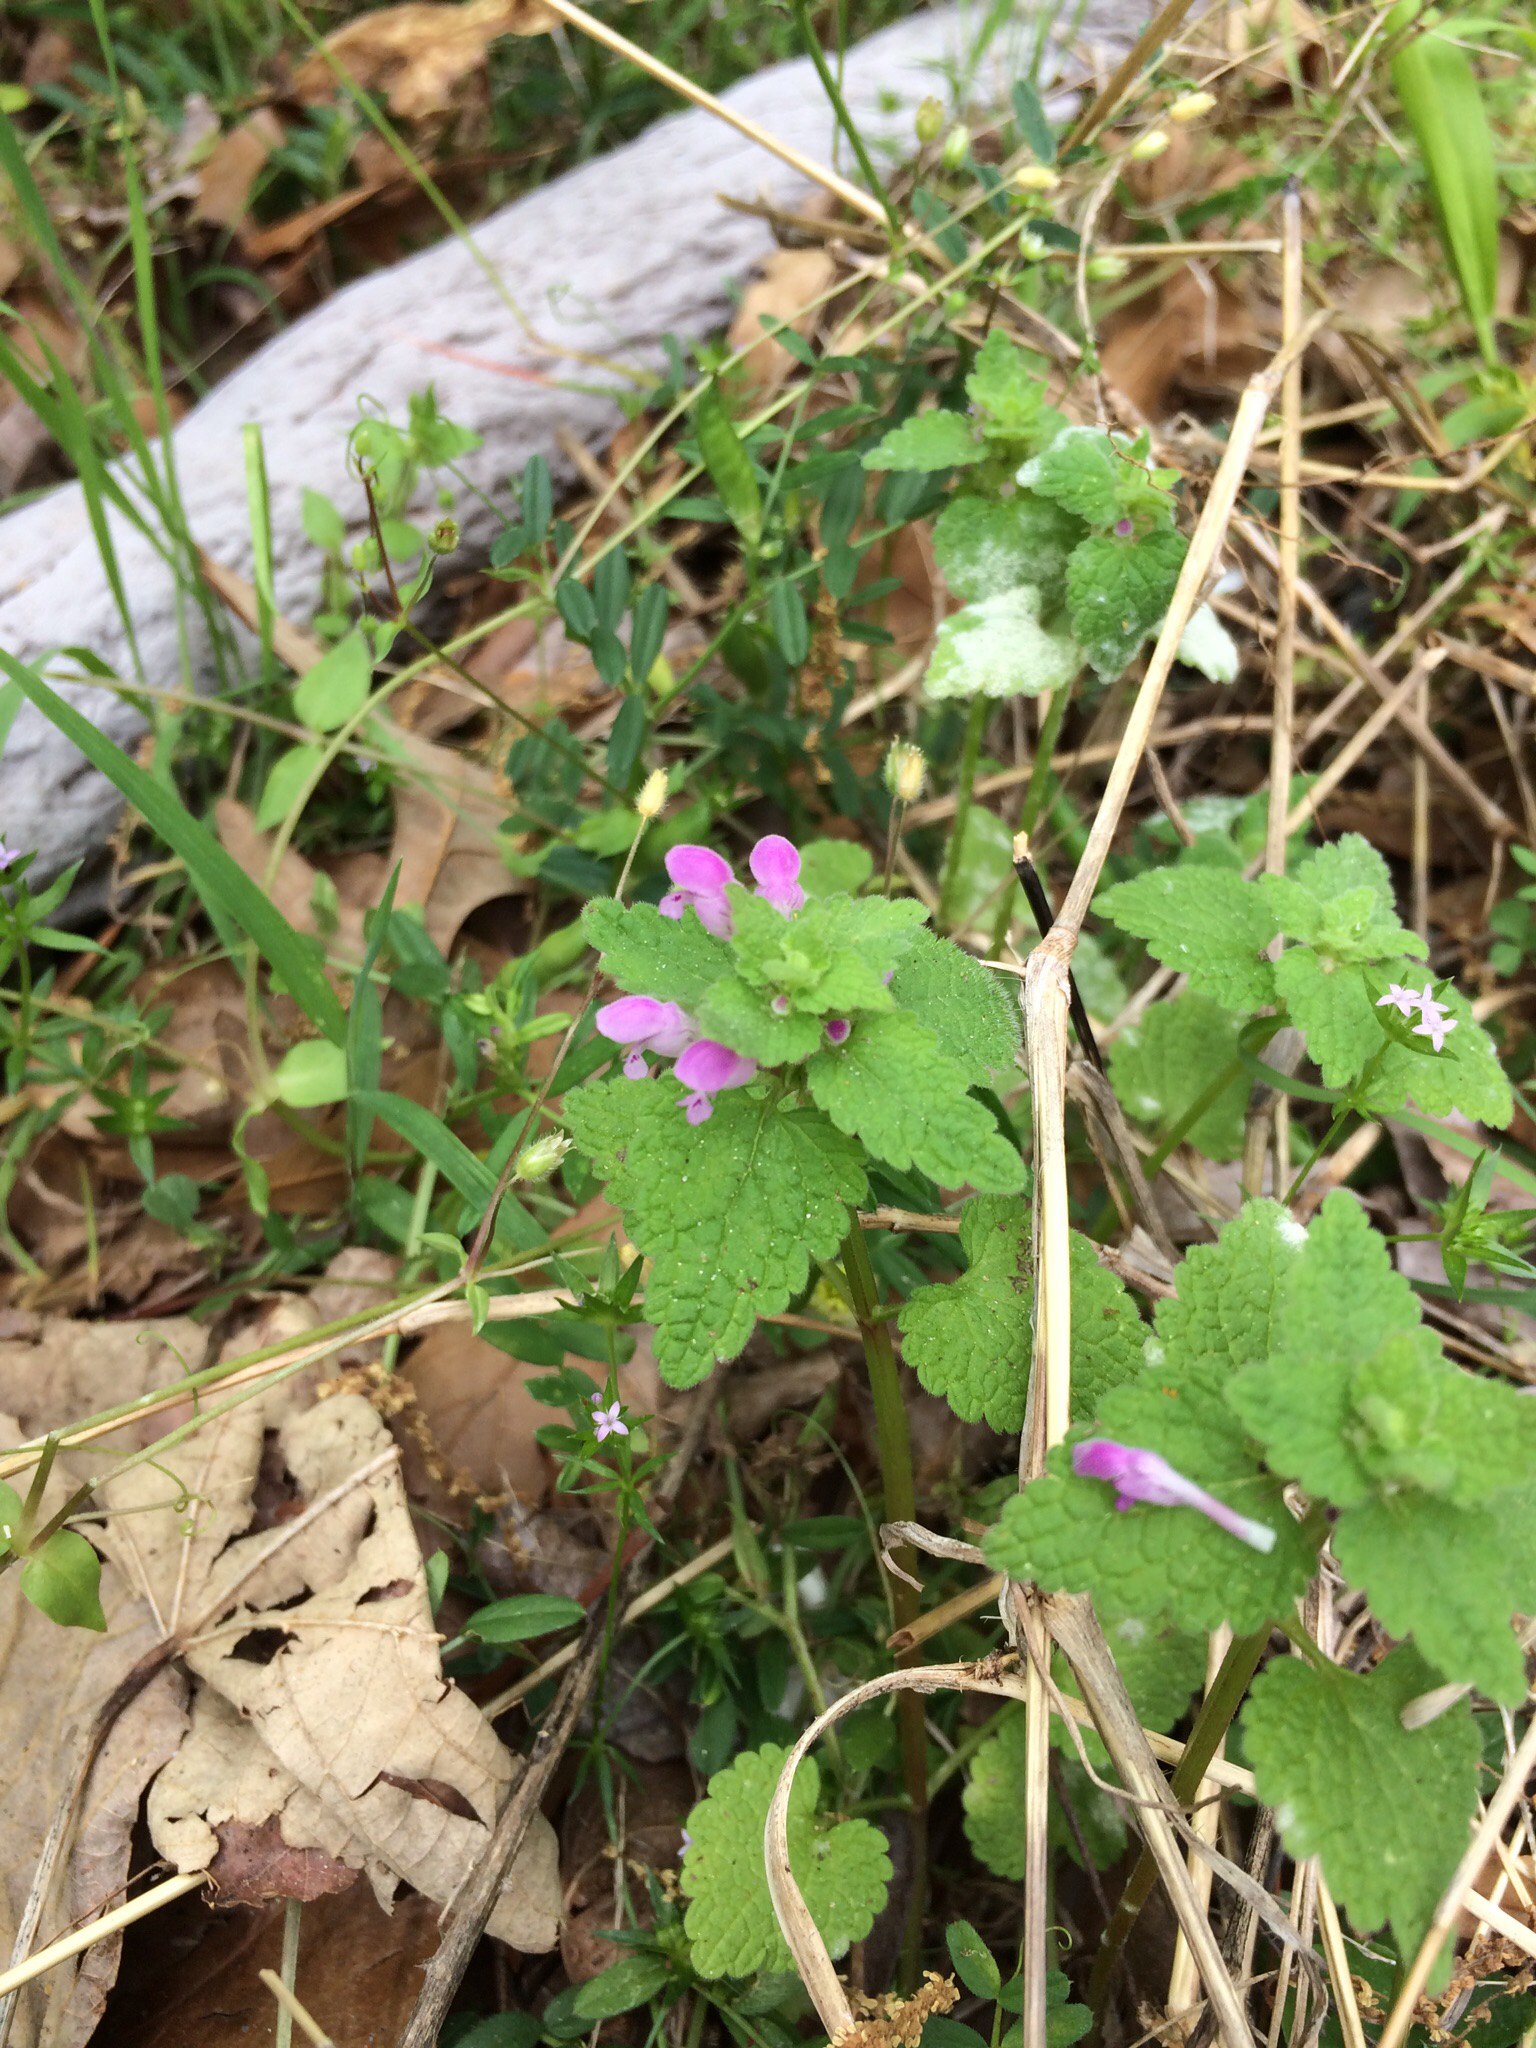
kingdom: Plantae
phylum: Tracheophyta
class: Magnoliopsida
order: Lamiales
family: Lamiaceae
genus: Lamium
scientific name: Lamium purpureum
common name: Red dead-nettle
